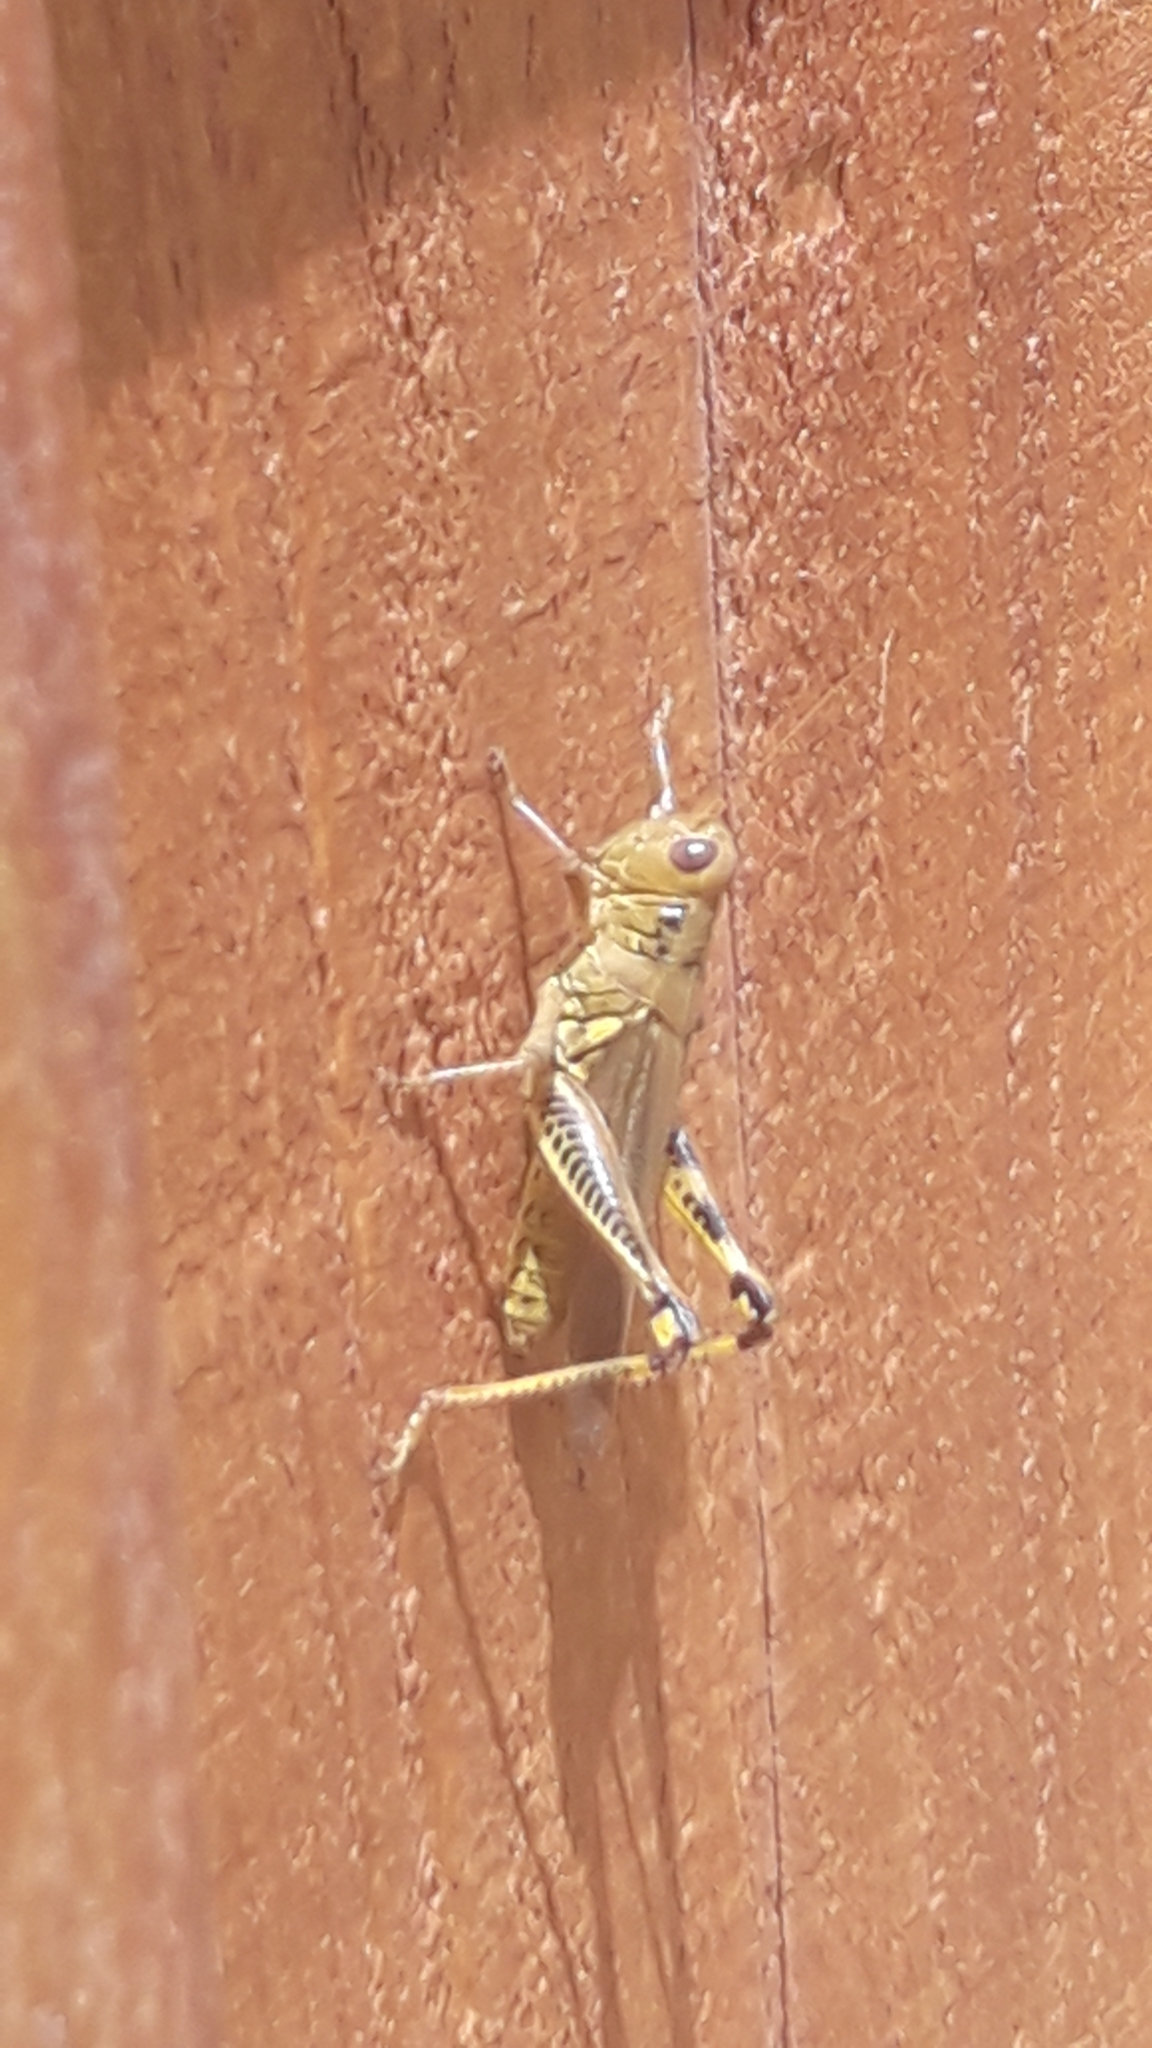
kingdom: Animalia
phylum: Arthropoda
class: Insecta
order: Orthoptera
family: Acrididae
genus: Melanoplus
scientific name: Melanoplus differentialis
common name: Differential grasshopper
